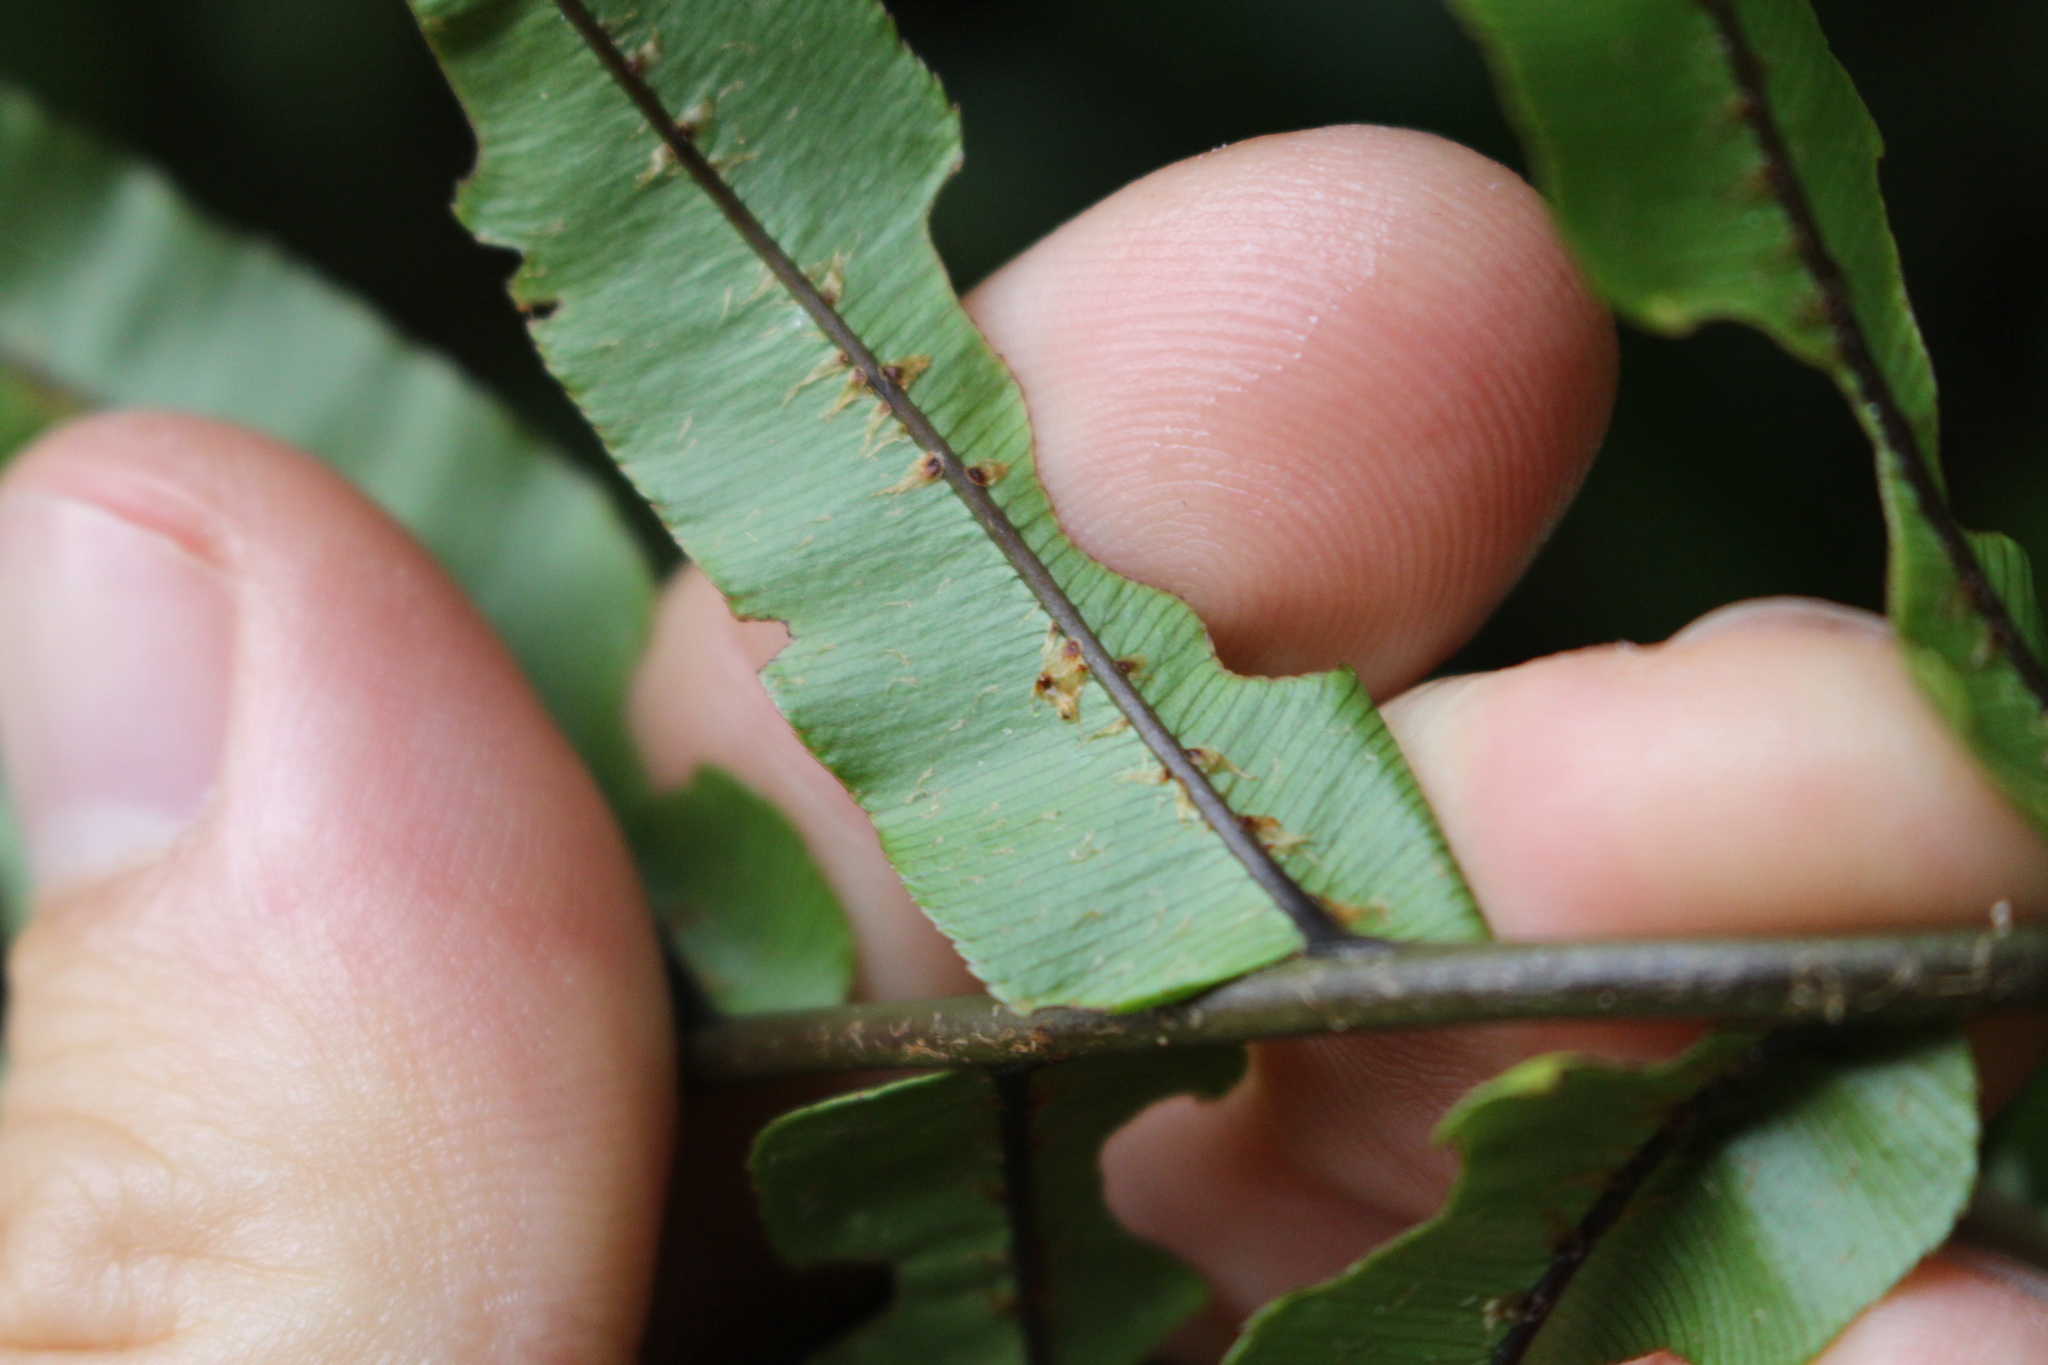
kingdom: Plantae
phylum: Tracheophyta
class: Polypodiopsida
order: Polypodiales
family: Blechnaceae
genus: Parablechnum
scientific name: Parablechnum novae-zelandiae
